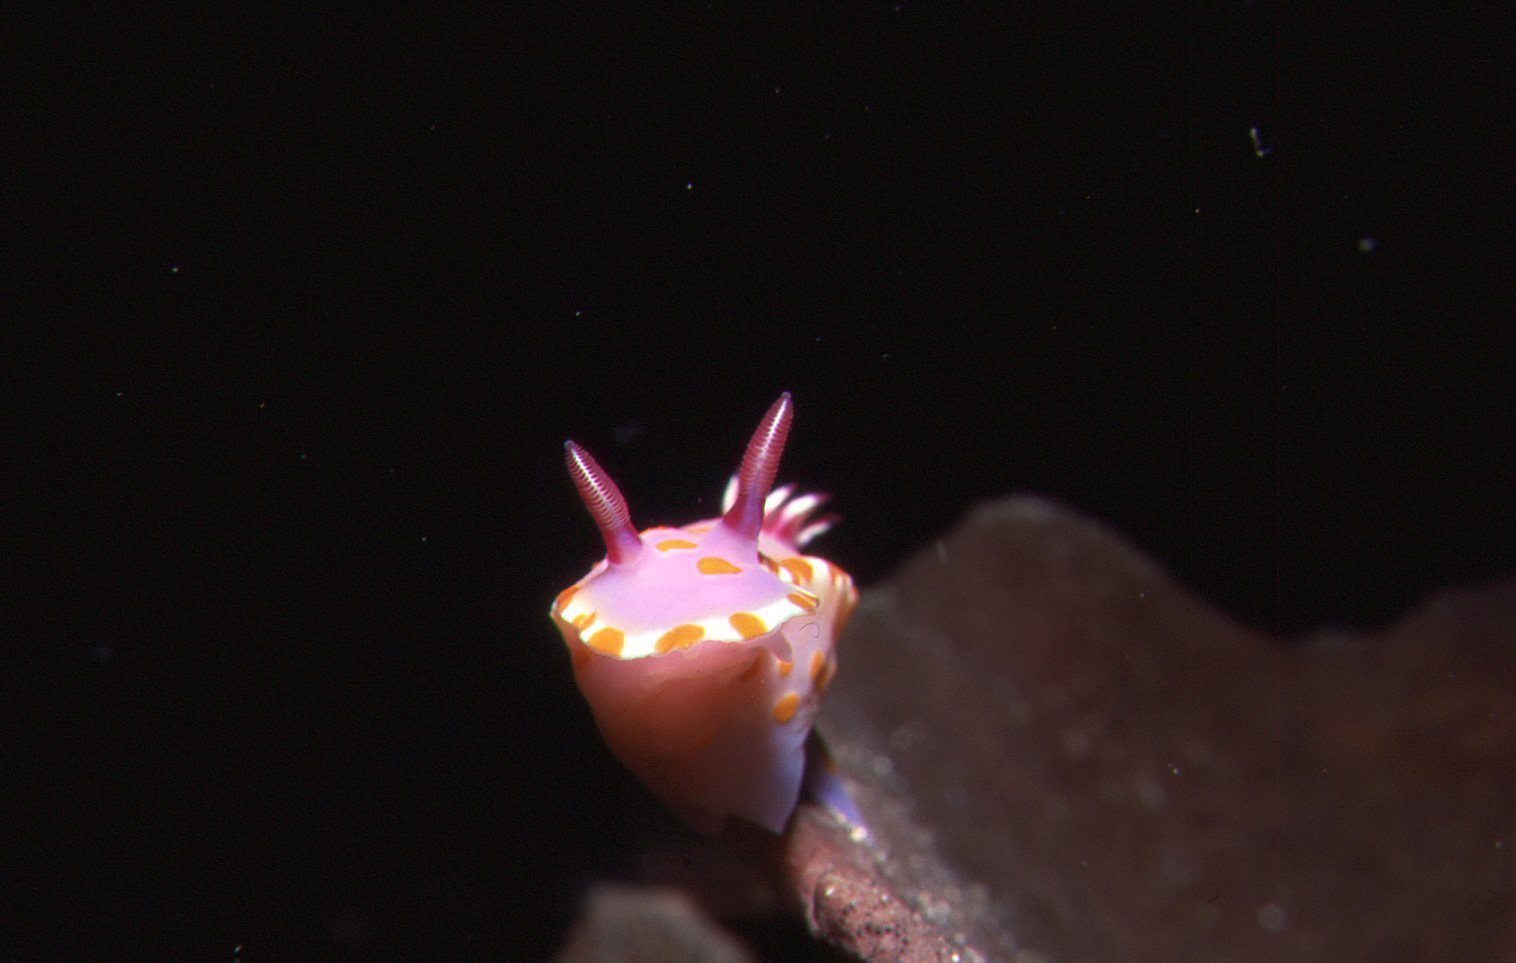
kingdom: Animalia
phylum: Mollusca
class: Gastropoda
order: Nudibranchia
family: Chromodorididae
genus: Ceratosoma
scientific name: Ceratosoma amoenum
